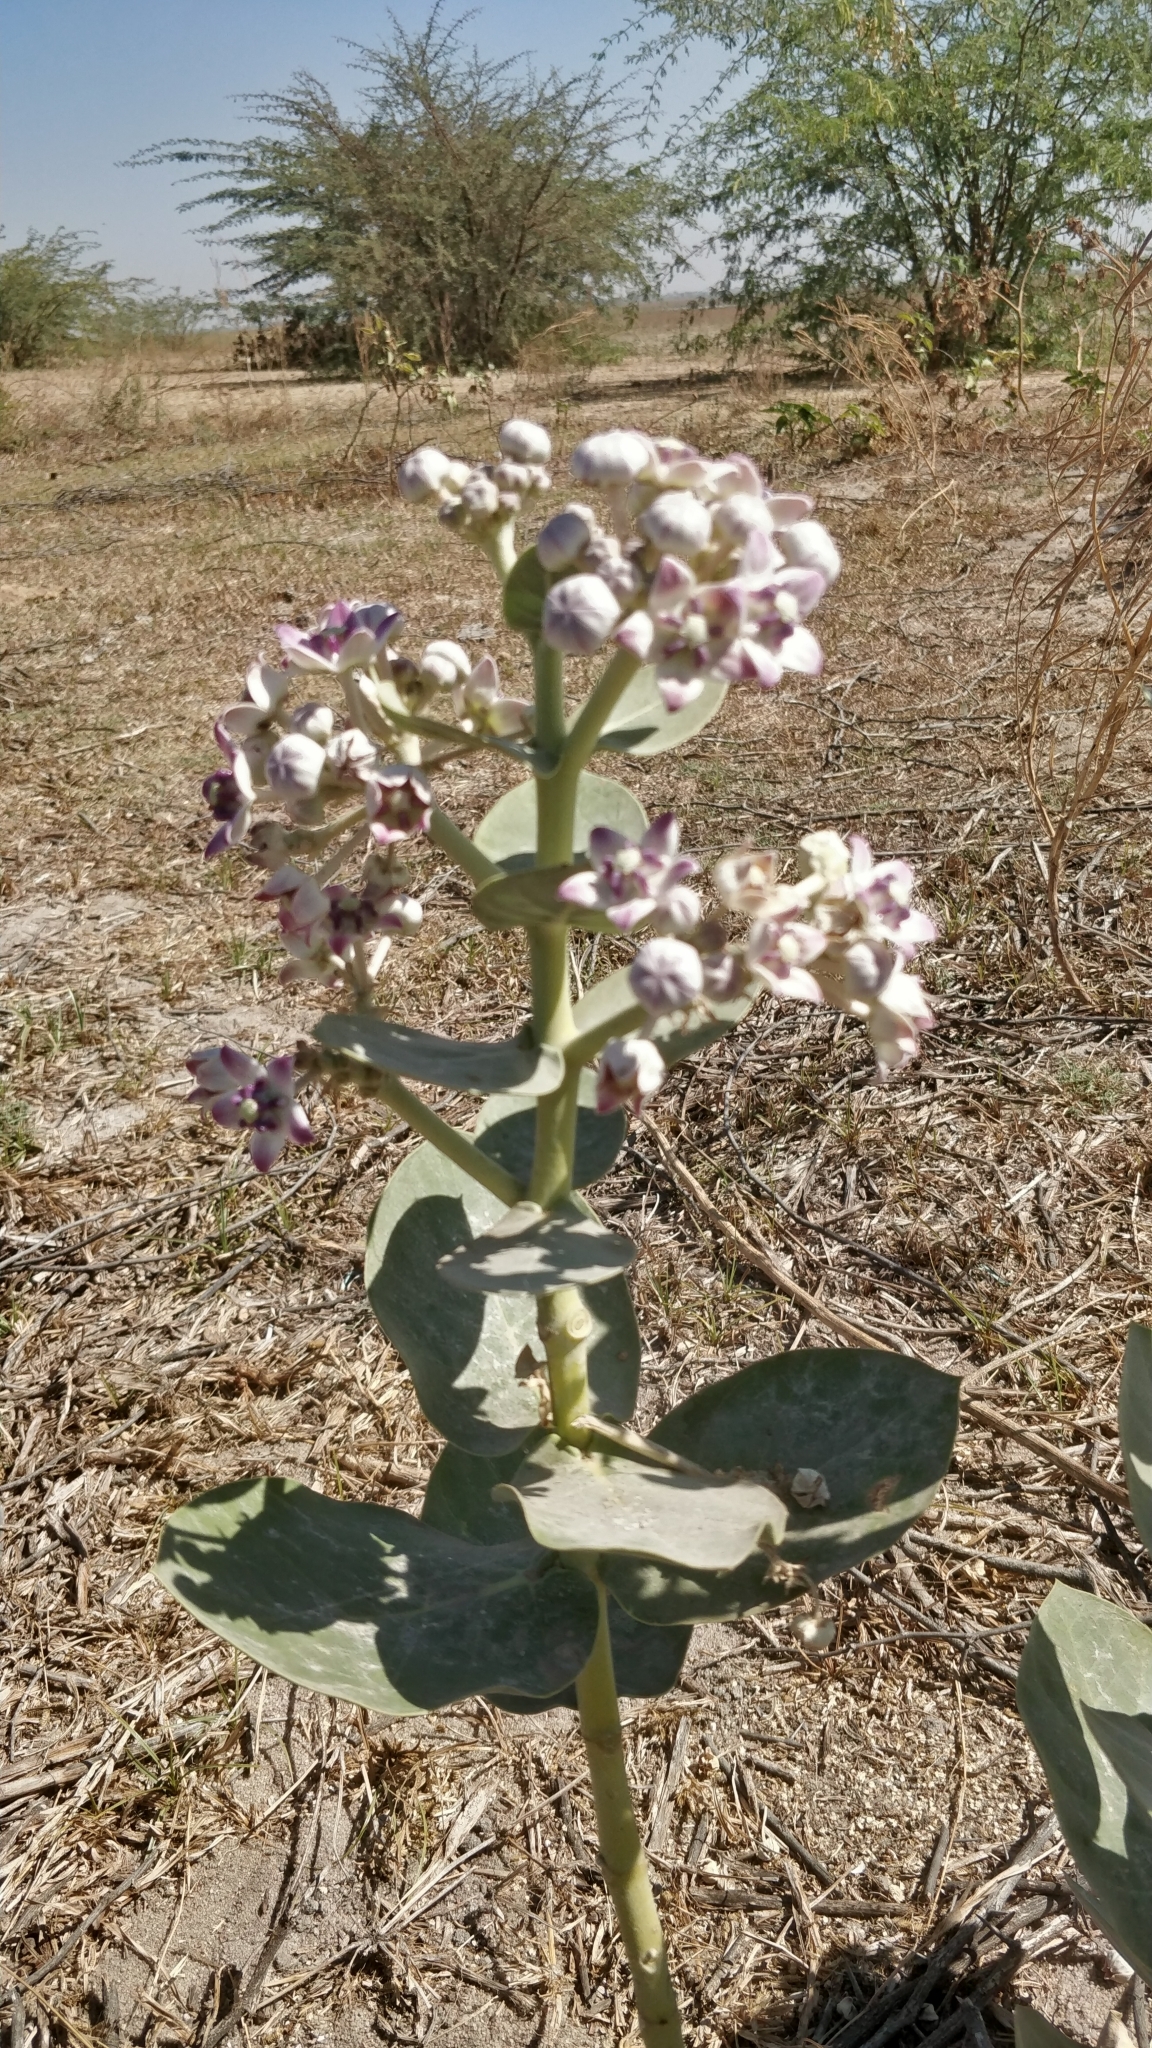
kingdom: Plantae
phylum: Tracheophyta
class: Magnoliopsida
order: Gentianales
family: Apocynaceae
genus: Calotropis
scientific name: Calotropis procera
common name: Roostertree
